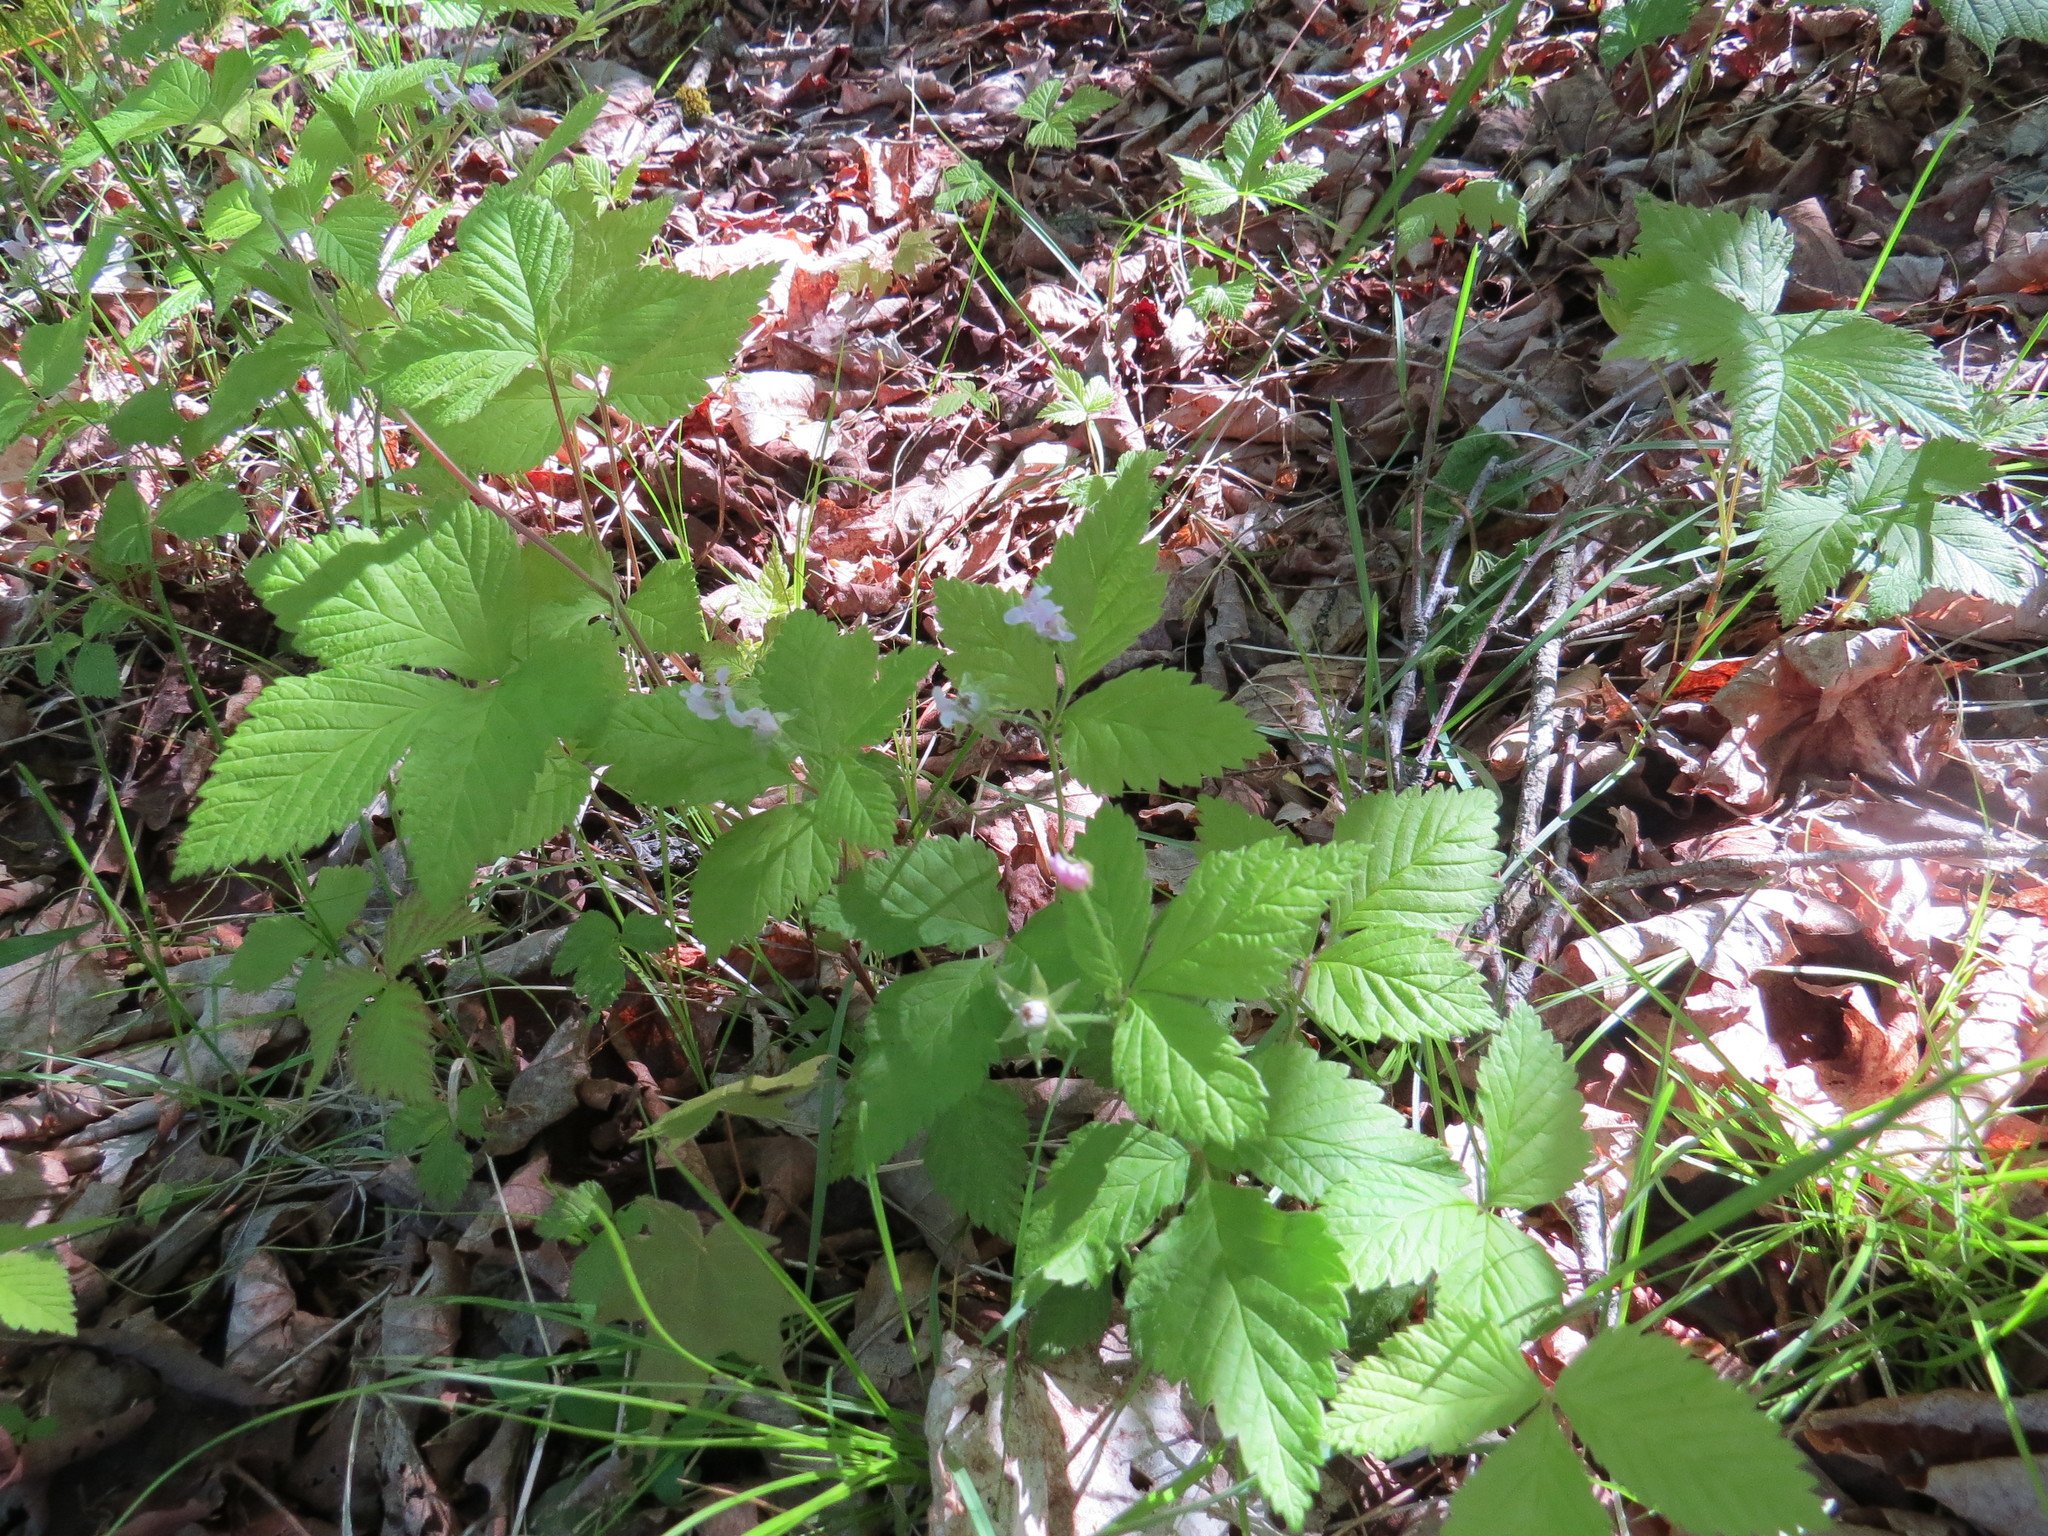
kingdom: Plantae
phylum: Tracheophyta
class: Magnoliopsida
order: Rosales
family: Rosaceae
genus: Rubus
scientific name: Rubus pubescens
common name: Dwarf raspberry
